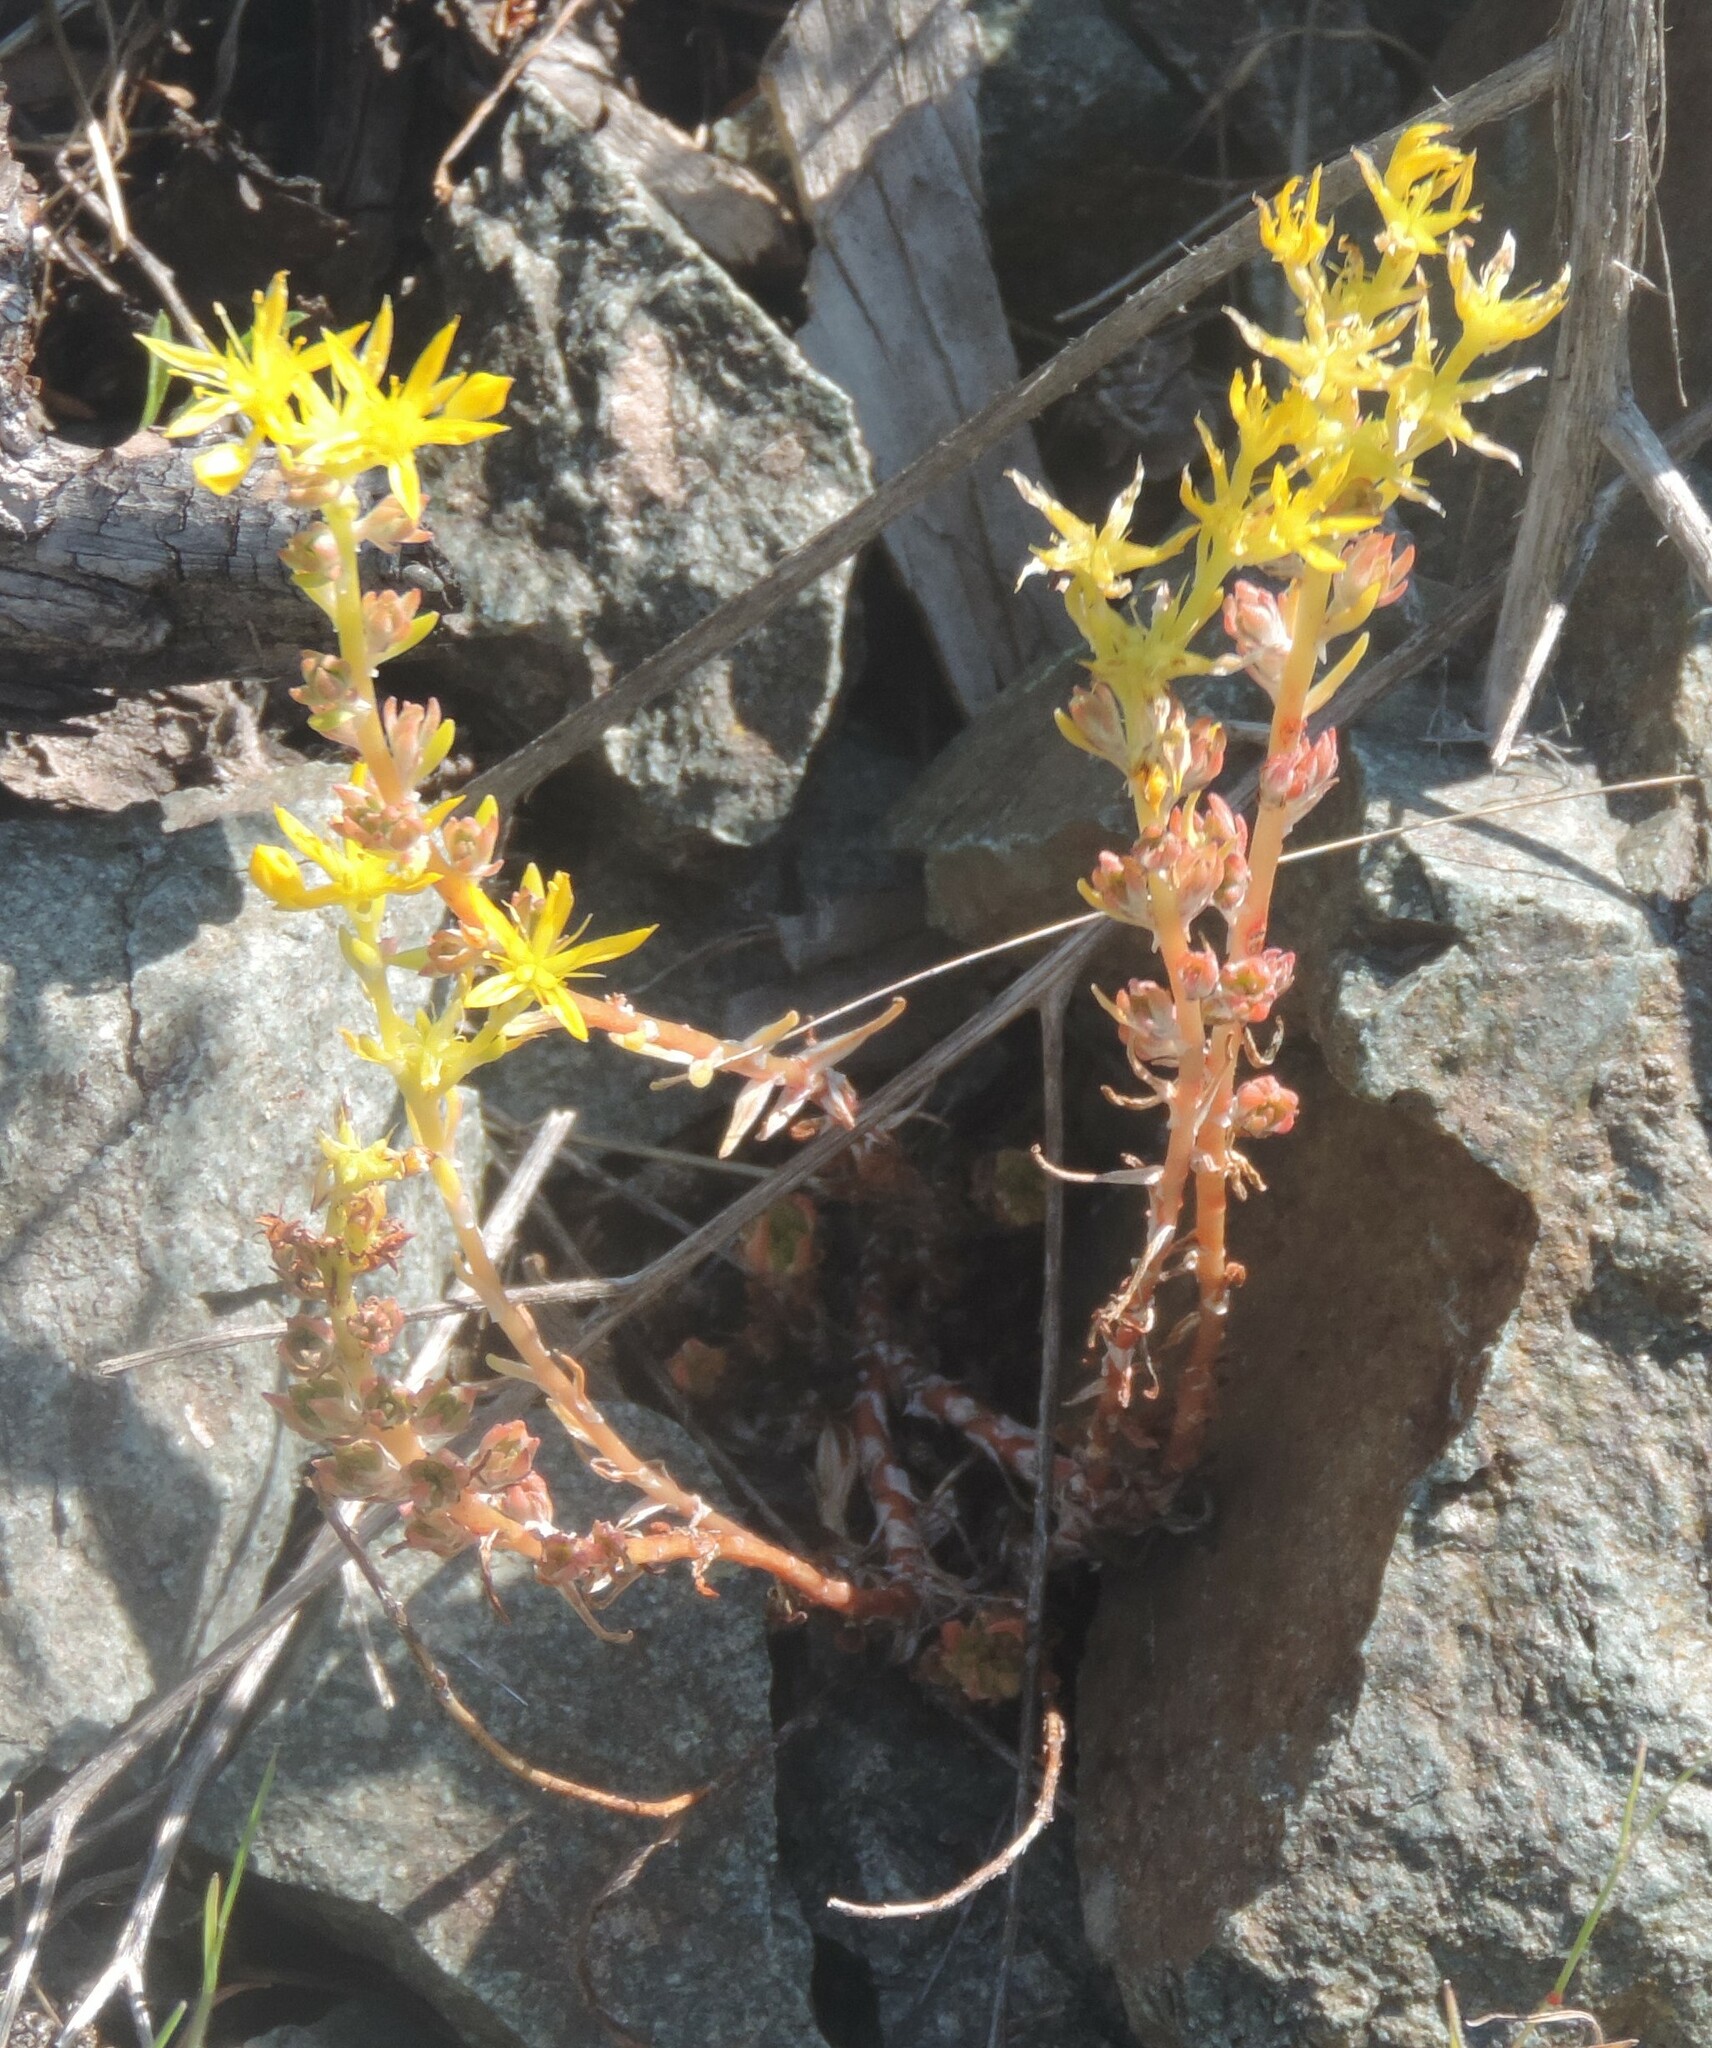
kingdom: Plantae
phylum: Tracheophyta
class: Magnoliopsida
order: Saxifragales
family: Crassulaceae
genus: Sedum
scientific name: Sedum stenopetalum
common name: Narrow-petaled stonecrop
